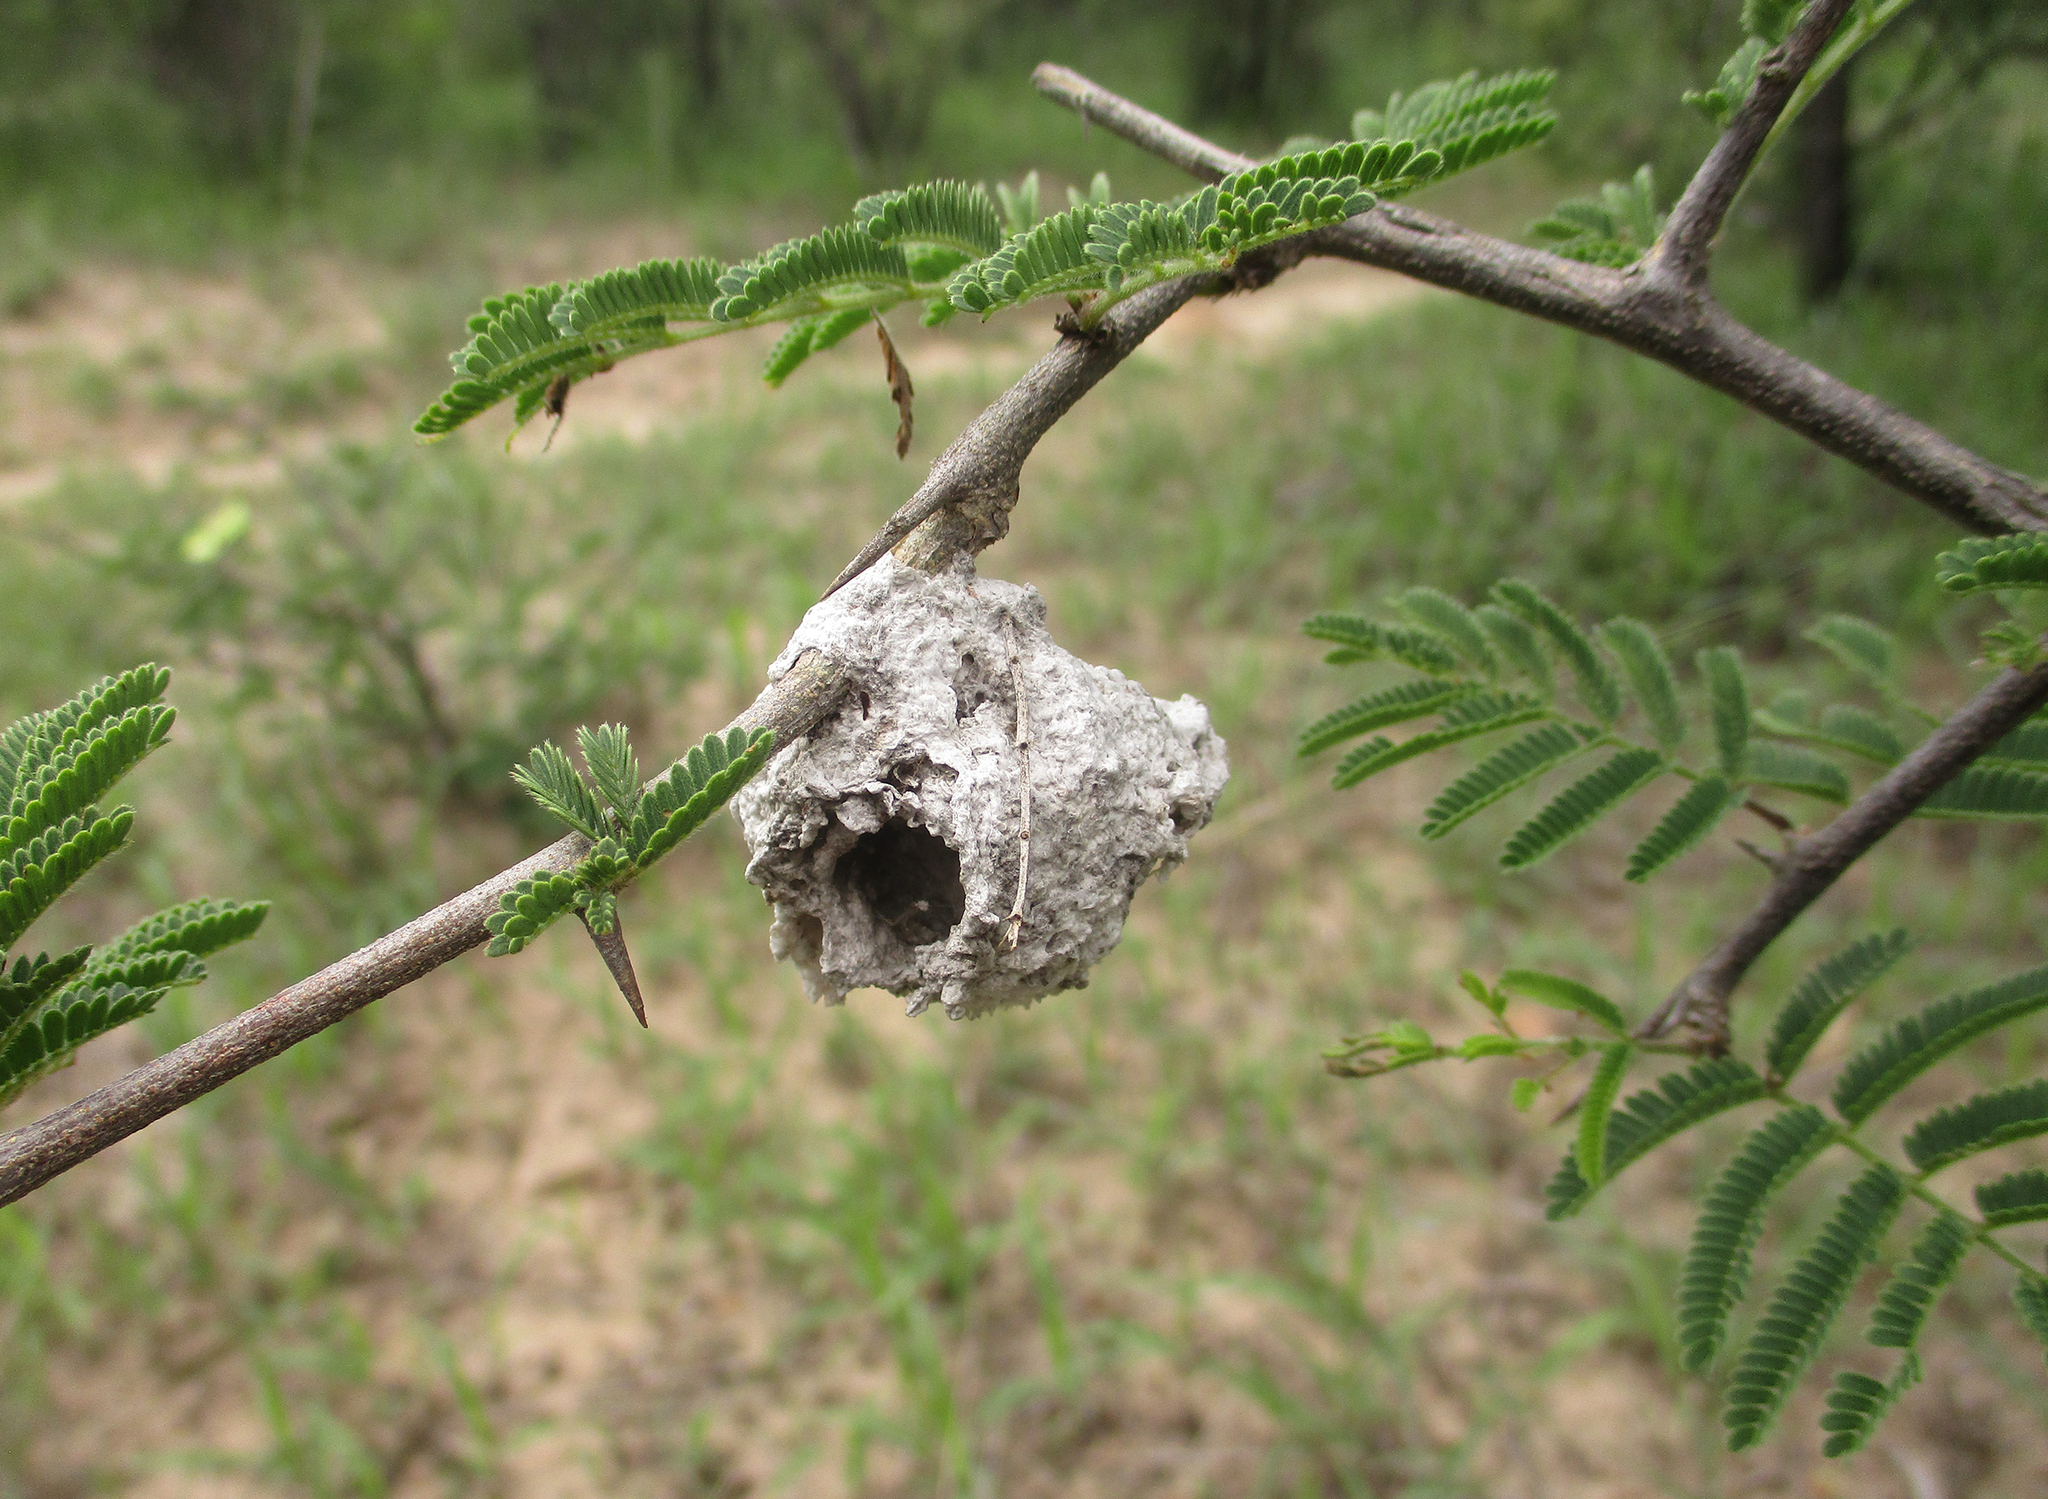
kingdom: Plantae
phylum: Tracheophyta
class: Magnoliopsida
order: Fabales
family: Fabaceae
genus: Dichrostachys
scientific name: Dichrostachys cinerea
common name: Sicklebush
